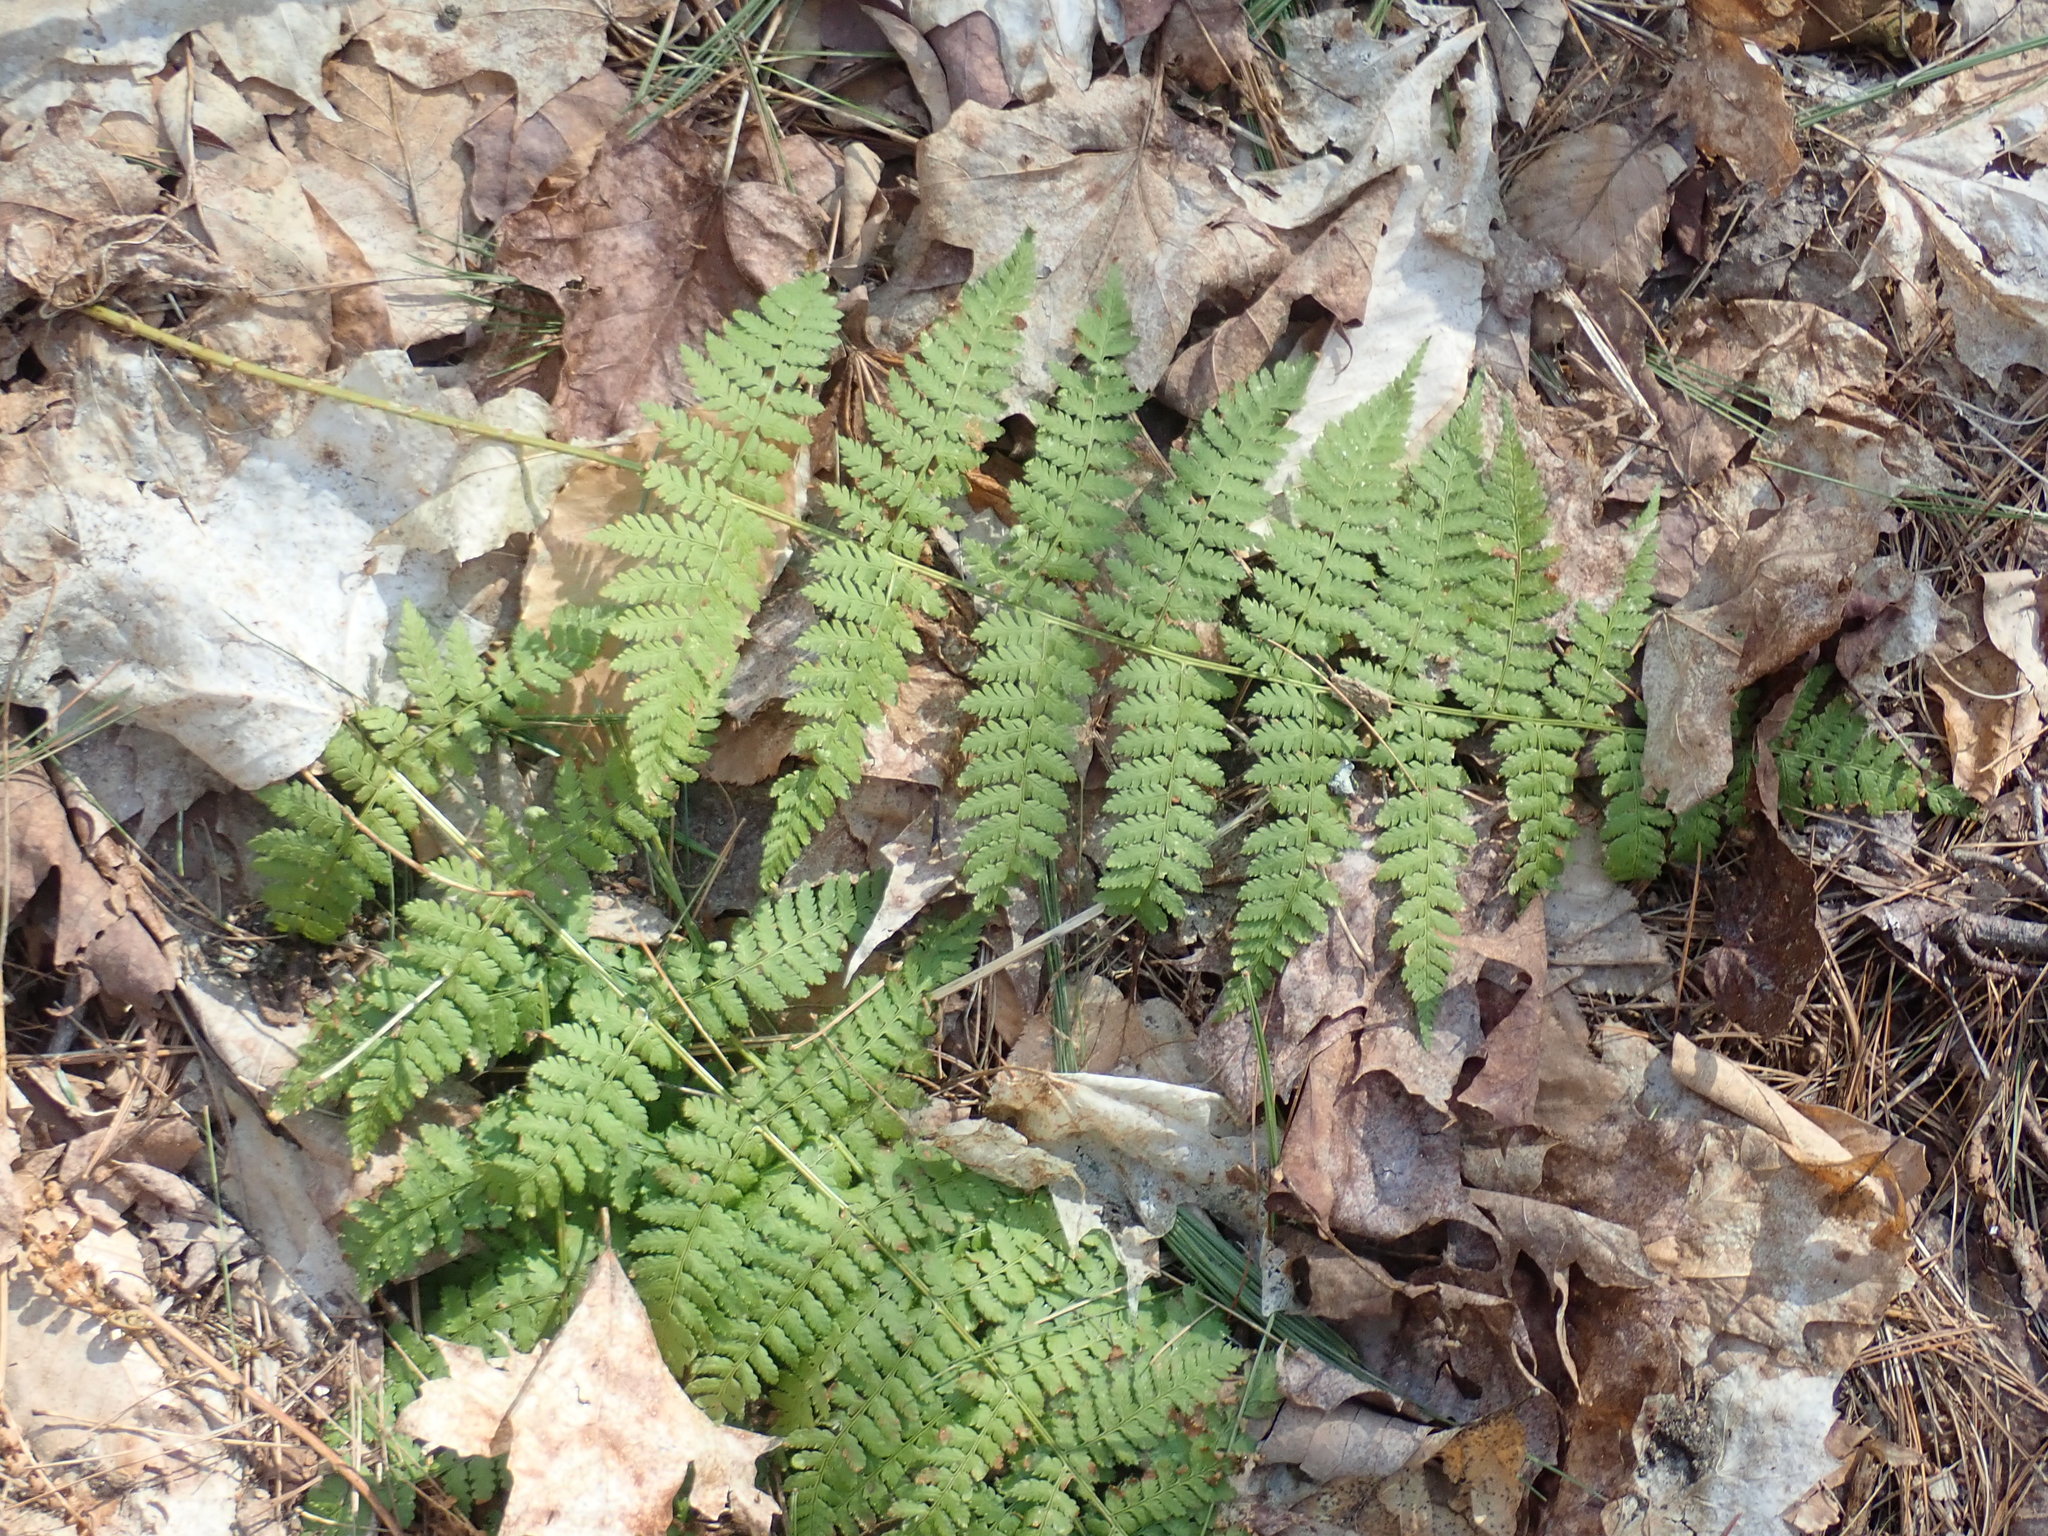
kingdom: Plantae
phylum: Tracheophyta
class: Polypodiopsida
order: Polypodiales
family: Dryopteridaceae
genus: Dryopteris
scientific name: Dryopteris intermedia
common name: Evergreen wood fern
